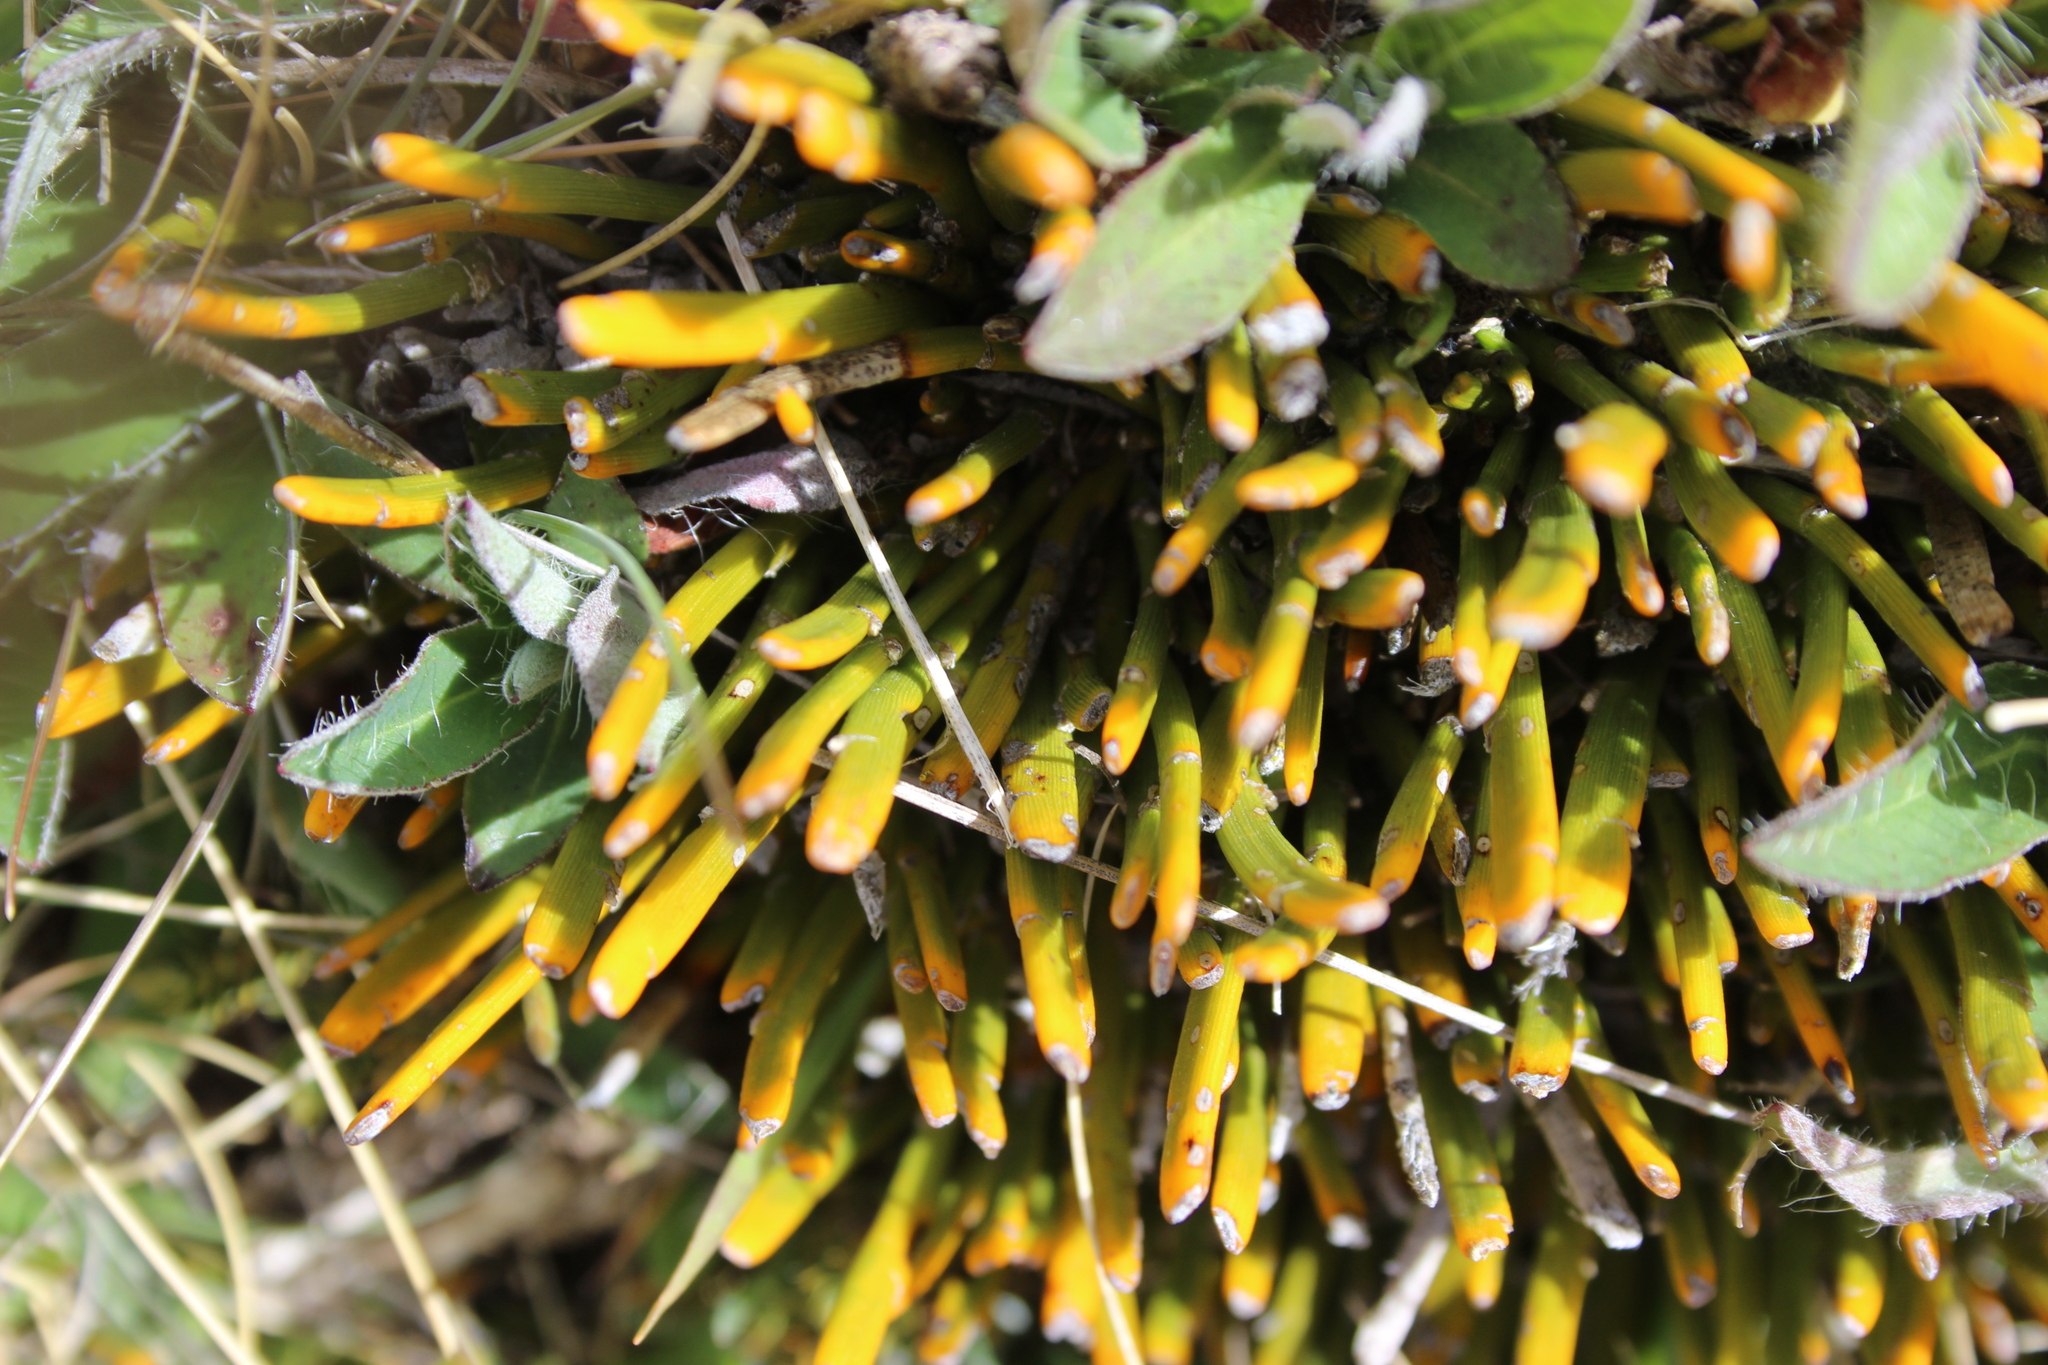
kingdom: Plantae
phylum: Tracheophyta
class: Magnoliopsida
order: Fabales
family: Fabaceae
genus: Carmichaelia
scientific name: Carmichaelia vexillata
